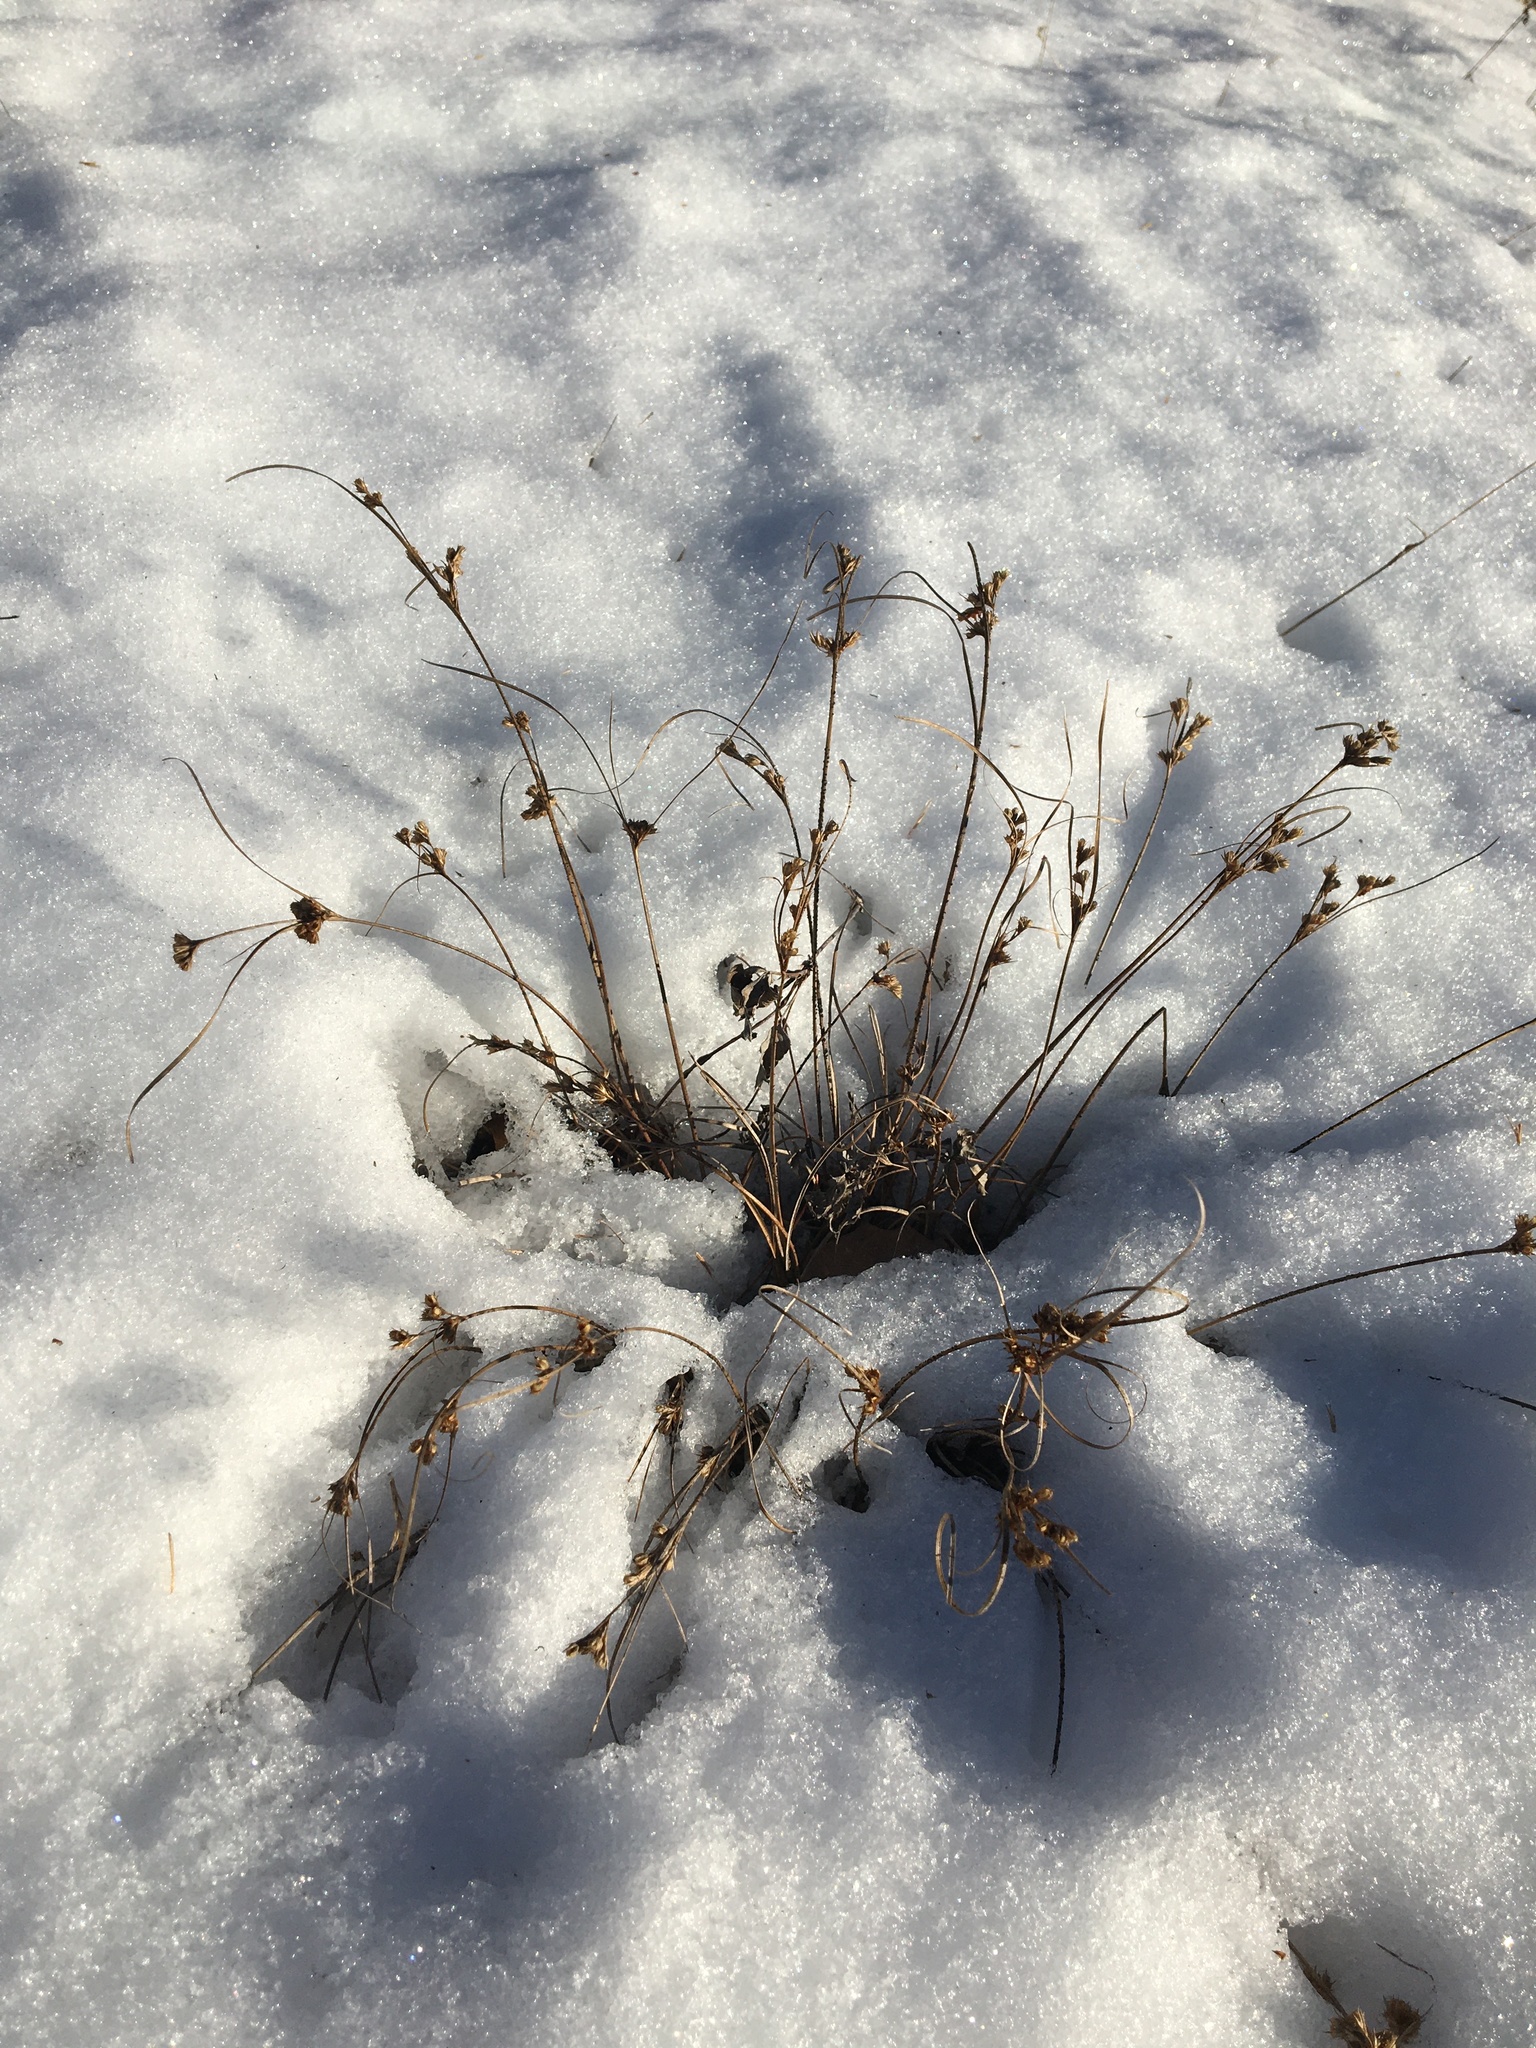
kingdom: Plantae
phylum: Tracheophyta
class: Liliopsida
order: Poales
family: Juncaceae
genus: Juncus
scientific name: Juncus tenuis
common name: Slender rush
